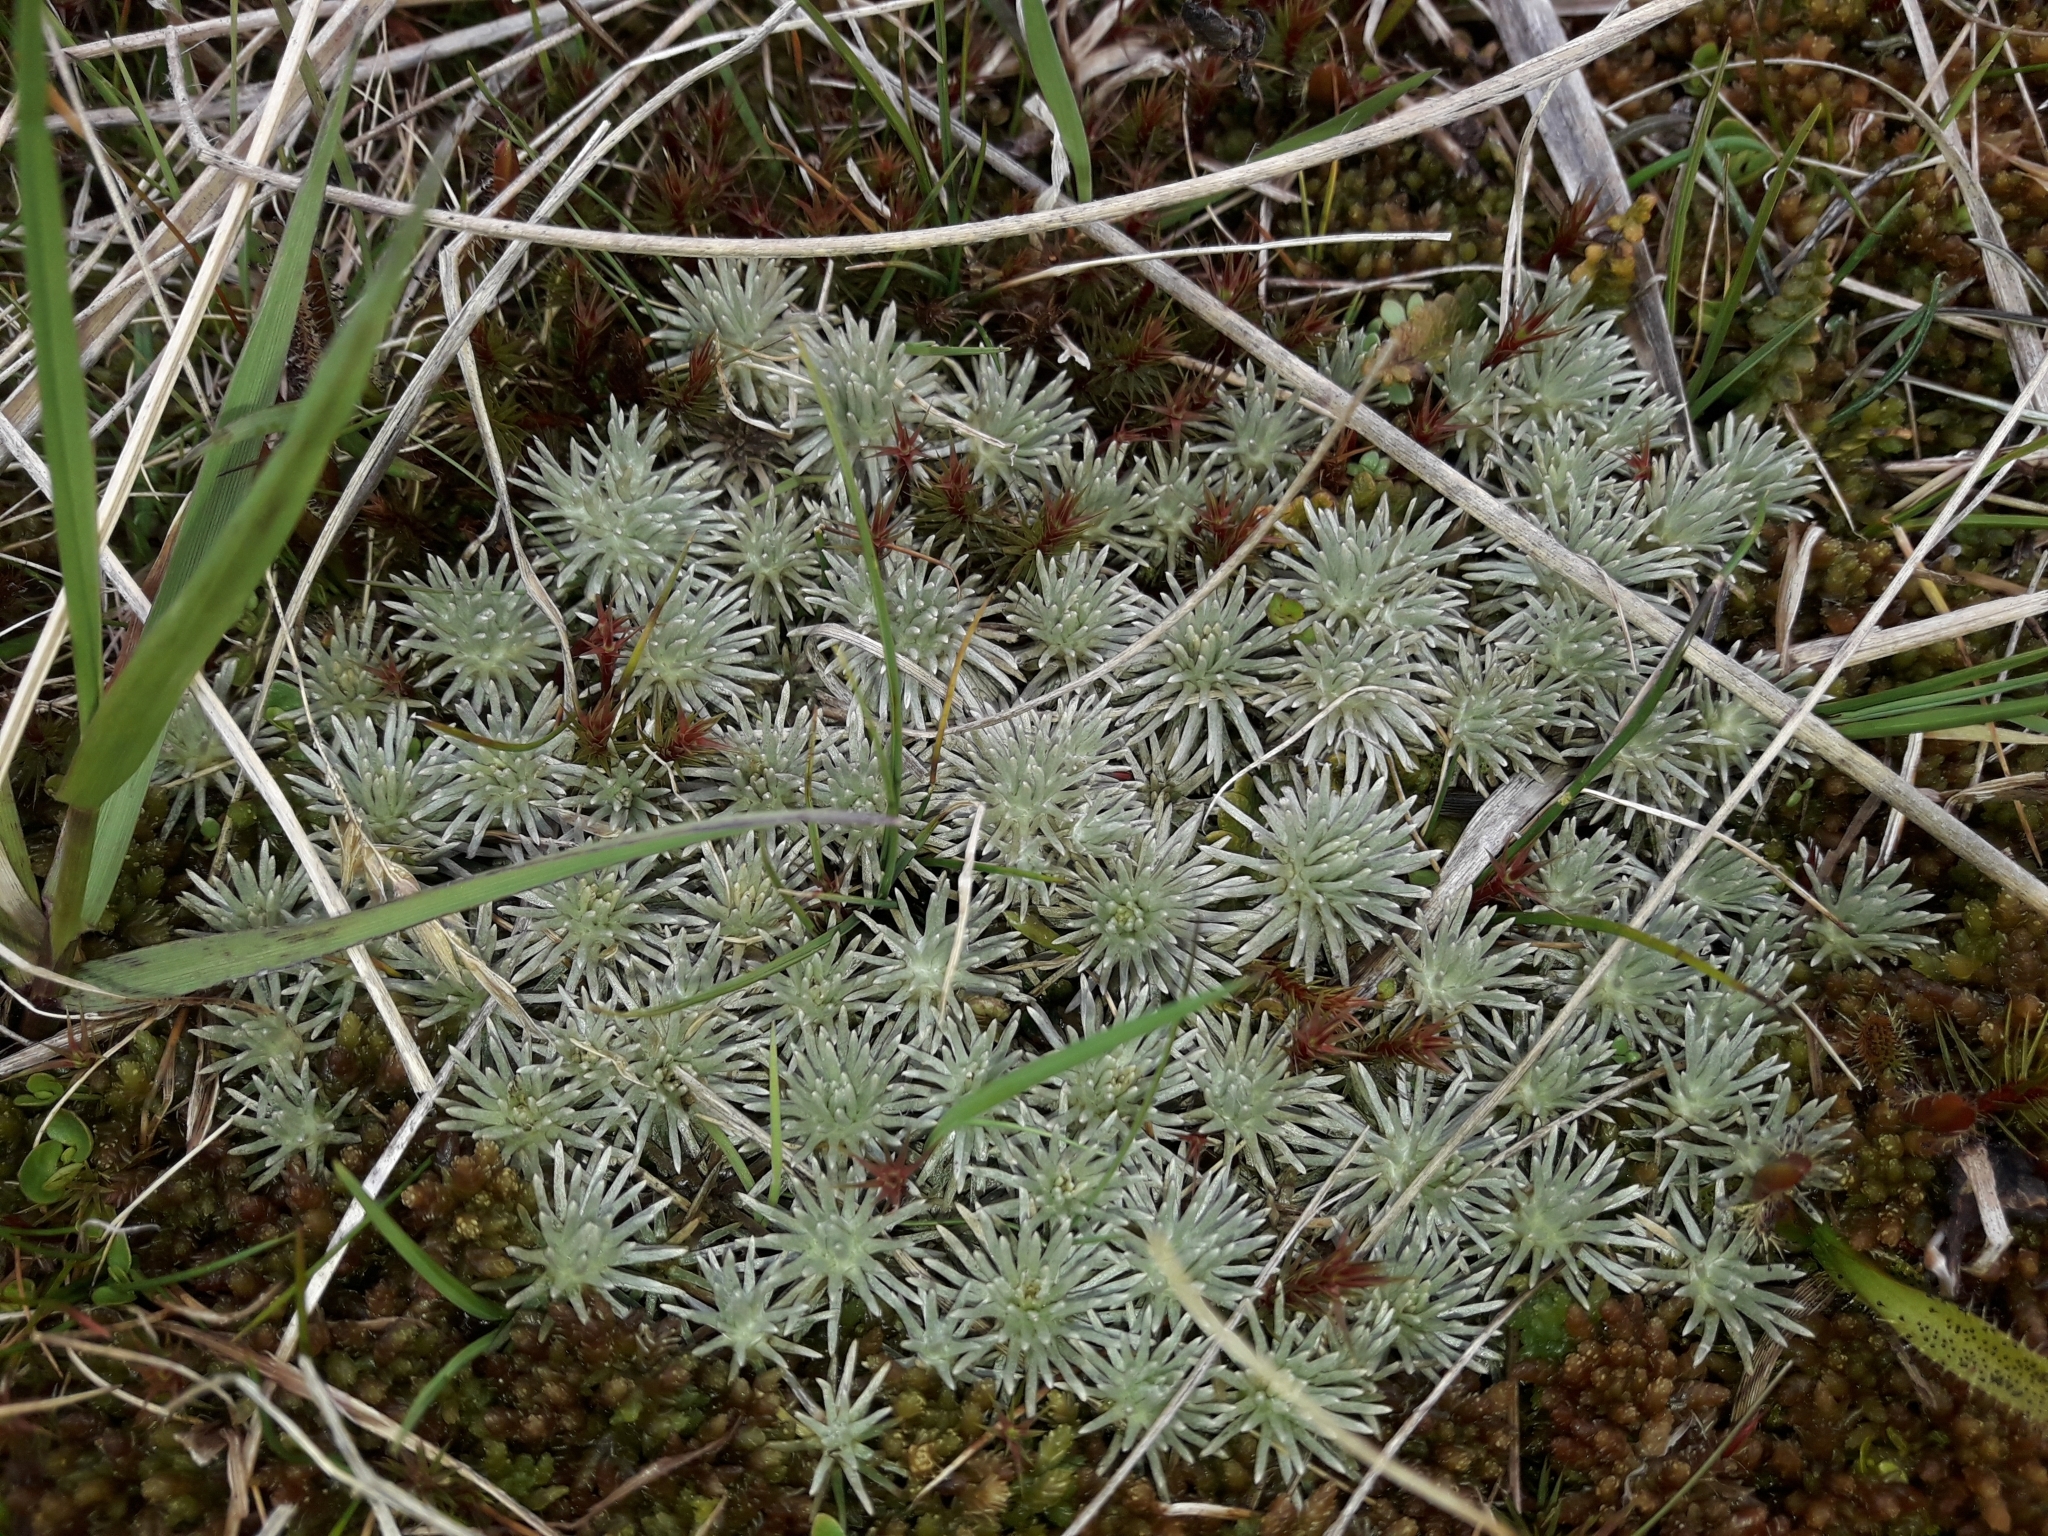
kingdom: Plantae
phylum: Tracheophyta
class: Magnoliopsida
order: Asterales
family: Asteraceae
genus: Celmisia
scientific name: Celmisia argentea
